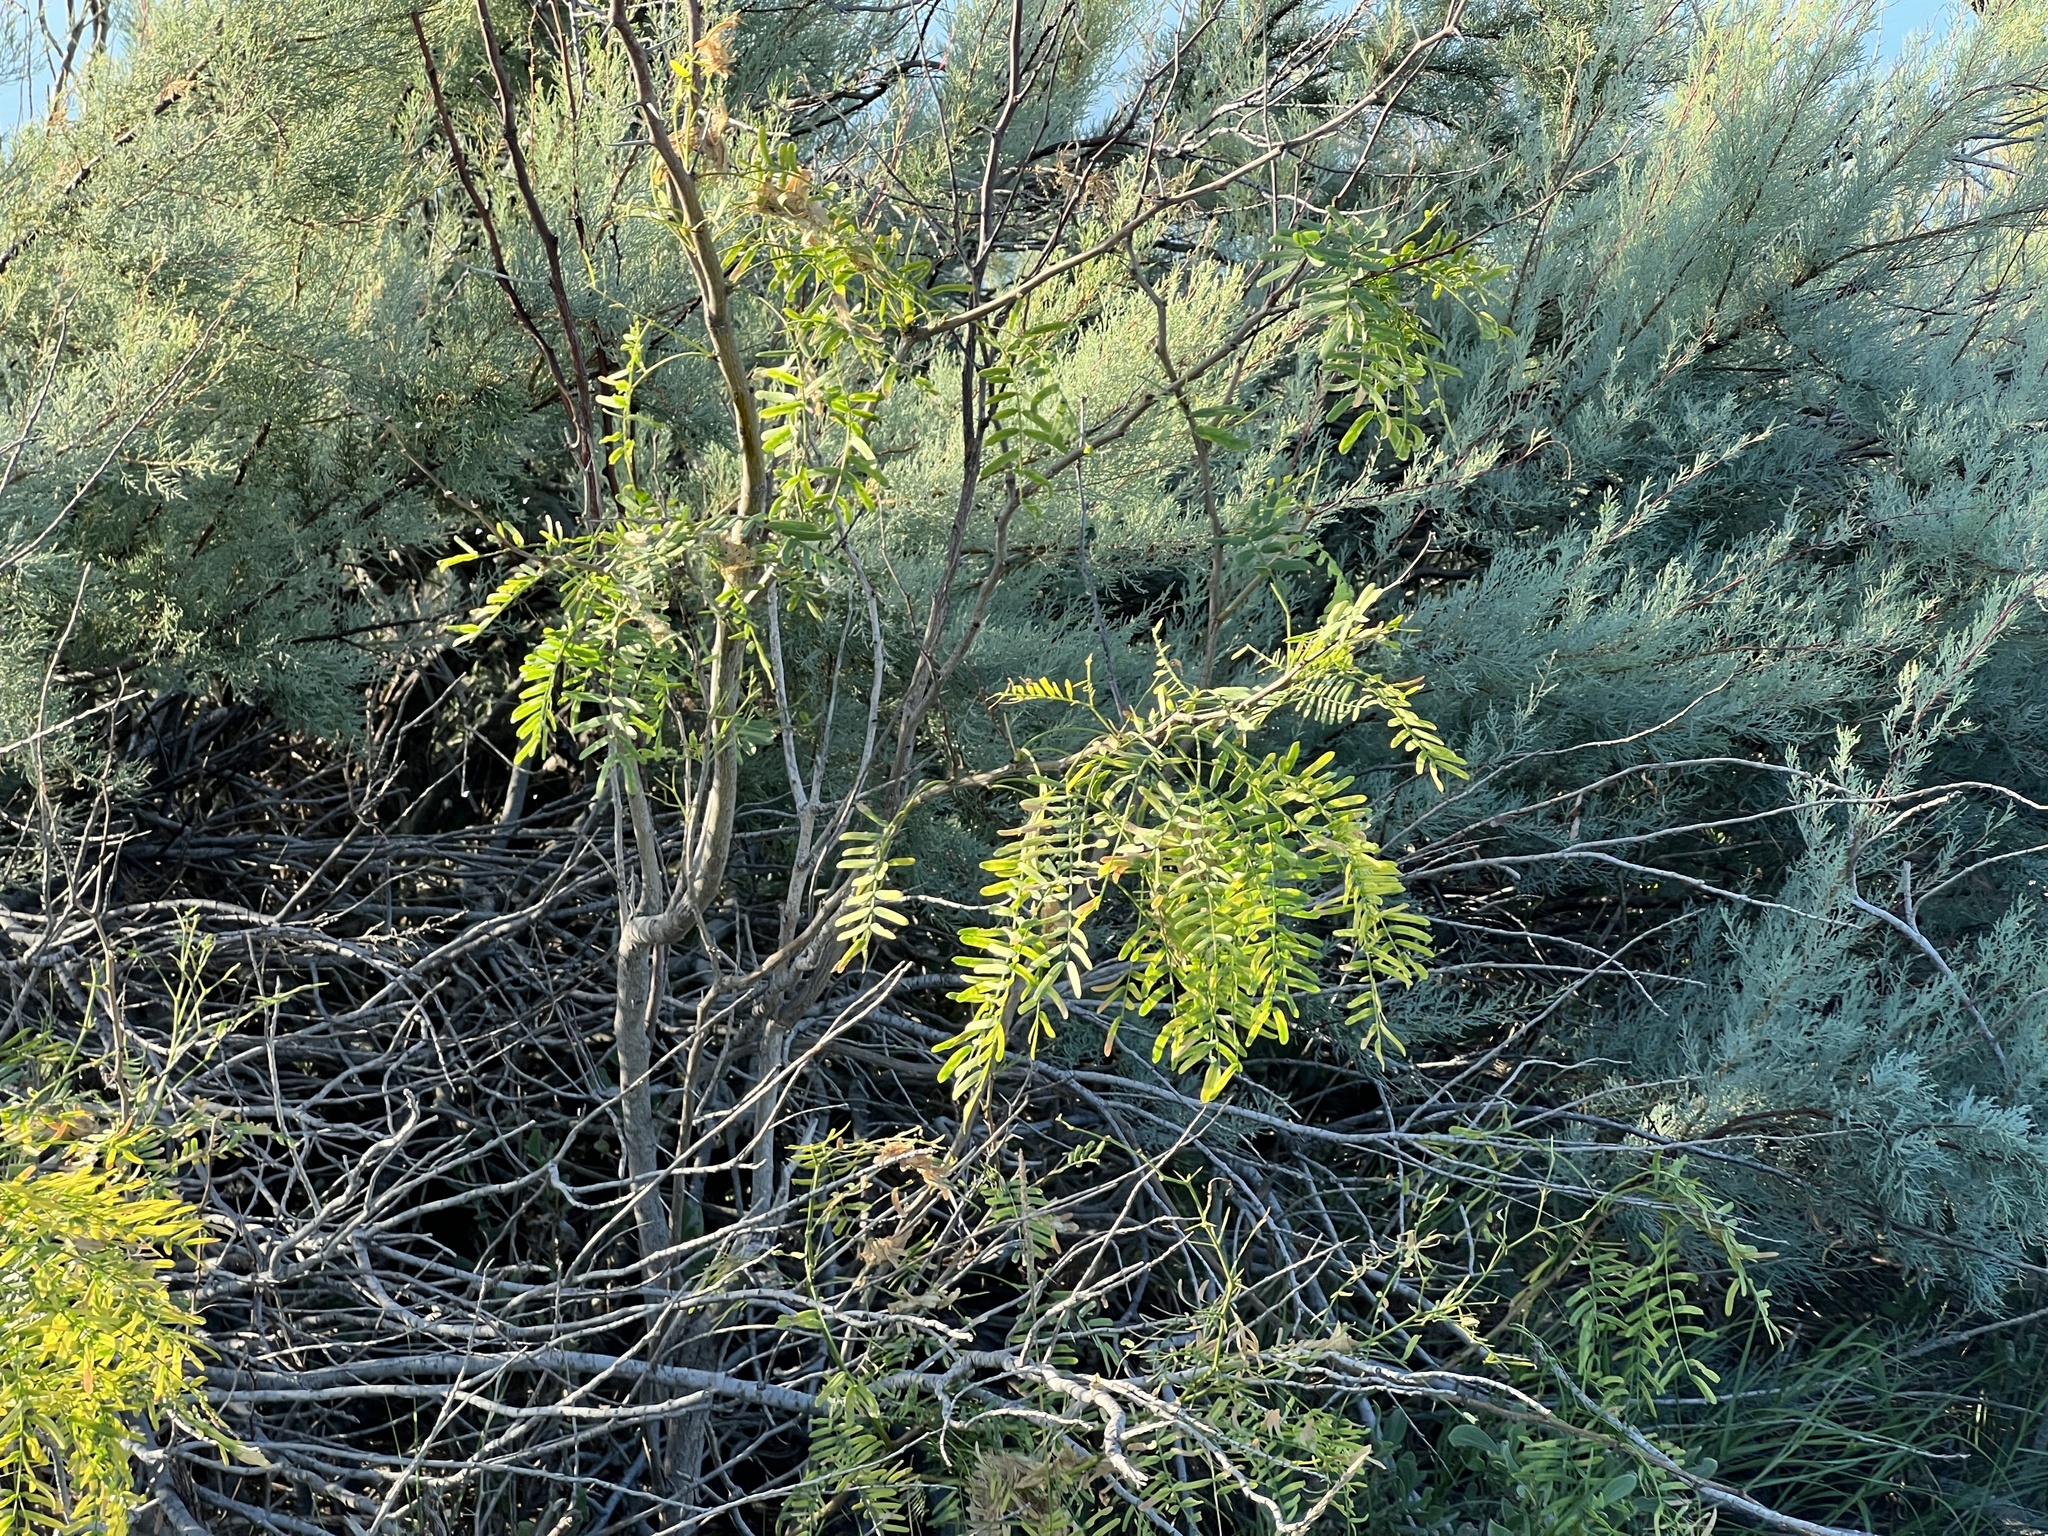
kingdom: Plantae
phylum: Tracheophyta
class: Magnoliopsida
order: Fabales
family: Fabaceae
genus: Prosopis
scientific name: Prosopis glandulosa
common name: Honey mesquite
